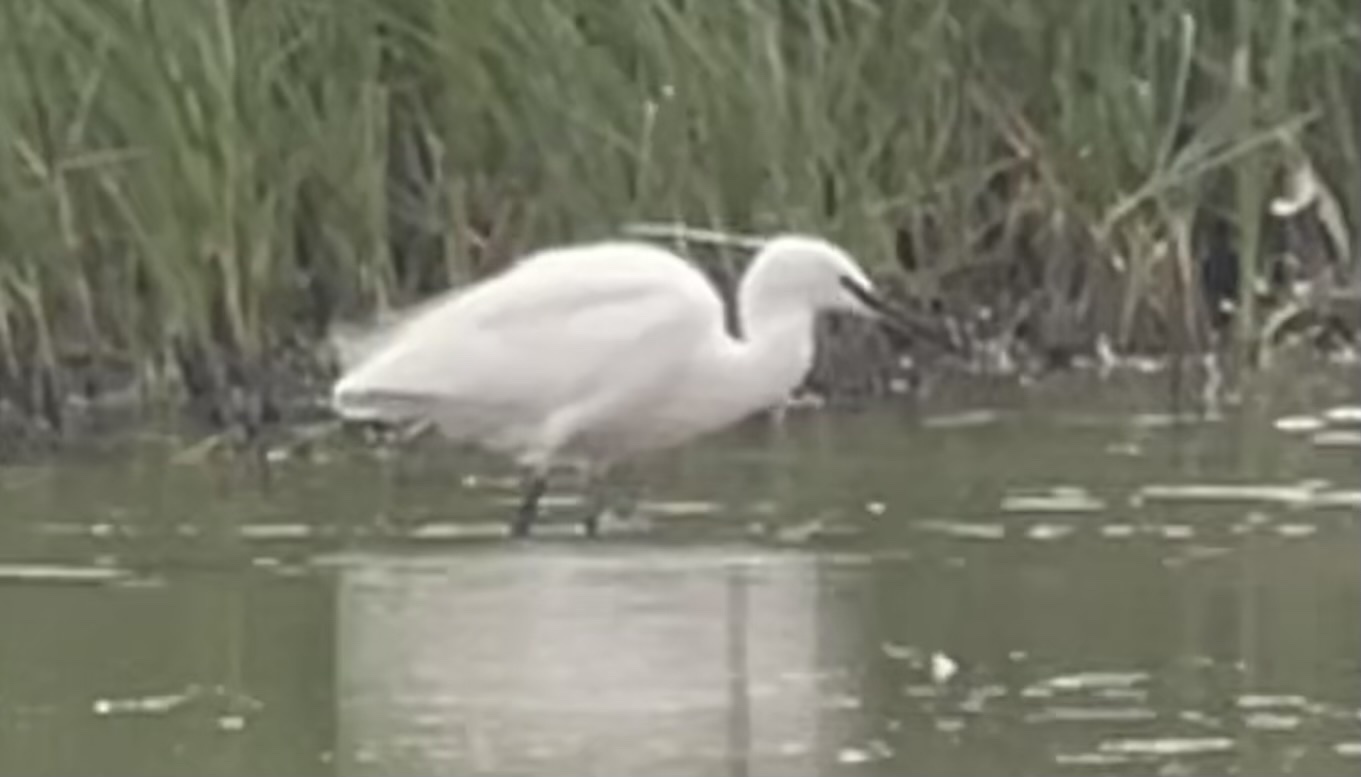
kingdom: Animalia
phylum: Chordata
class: Aves
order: Pelecaniformes
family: Ardeidae
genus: Egretta
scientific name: Egretta garzetta
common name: Little egret
